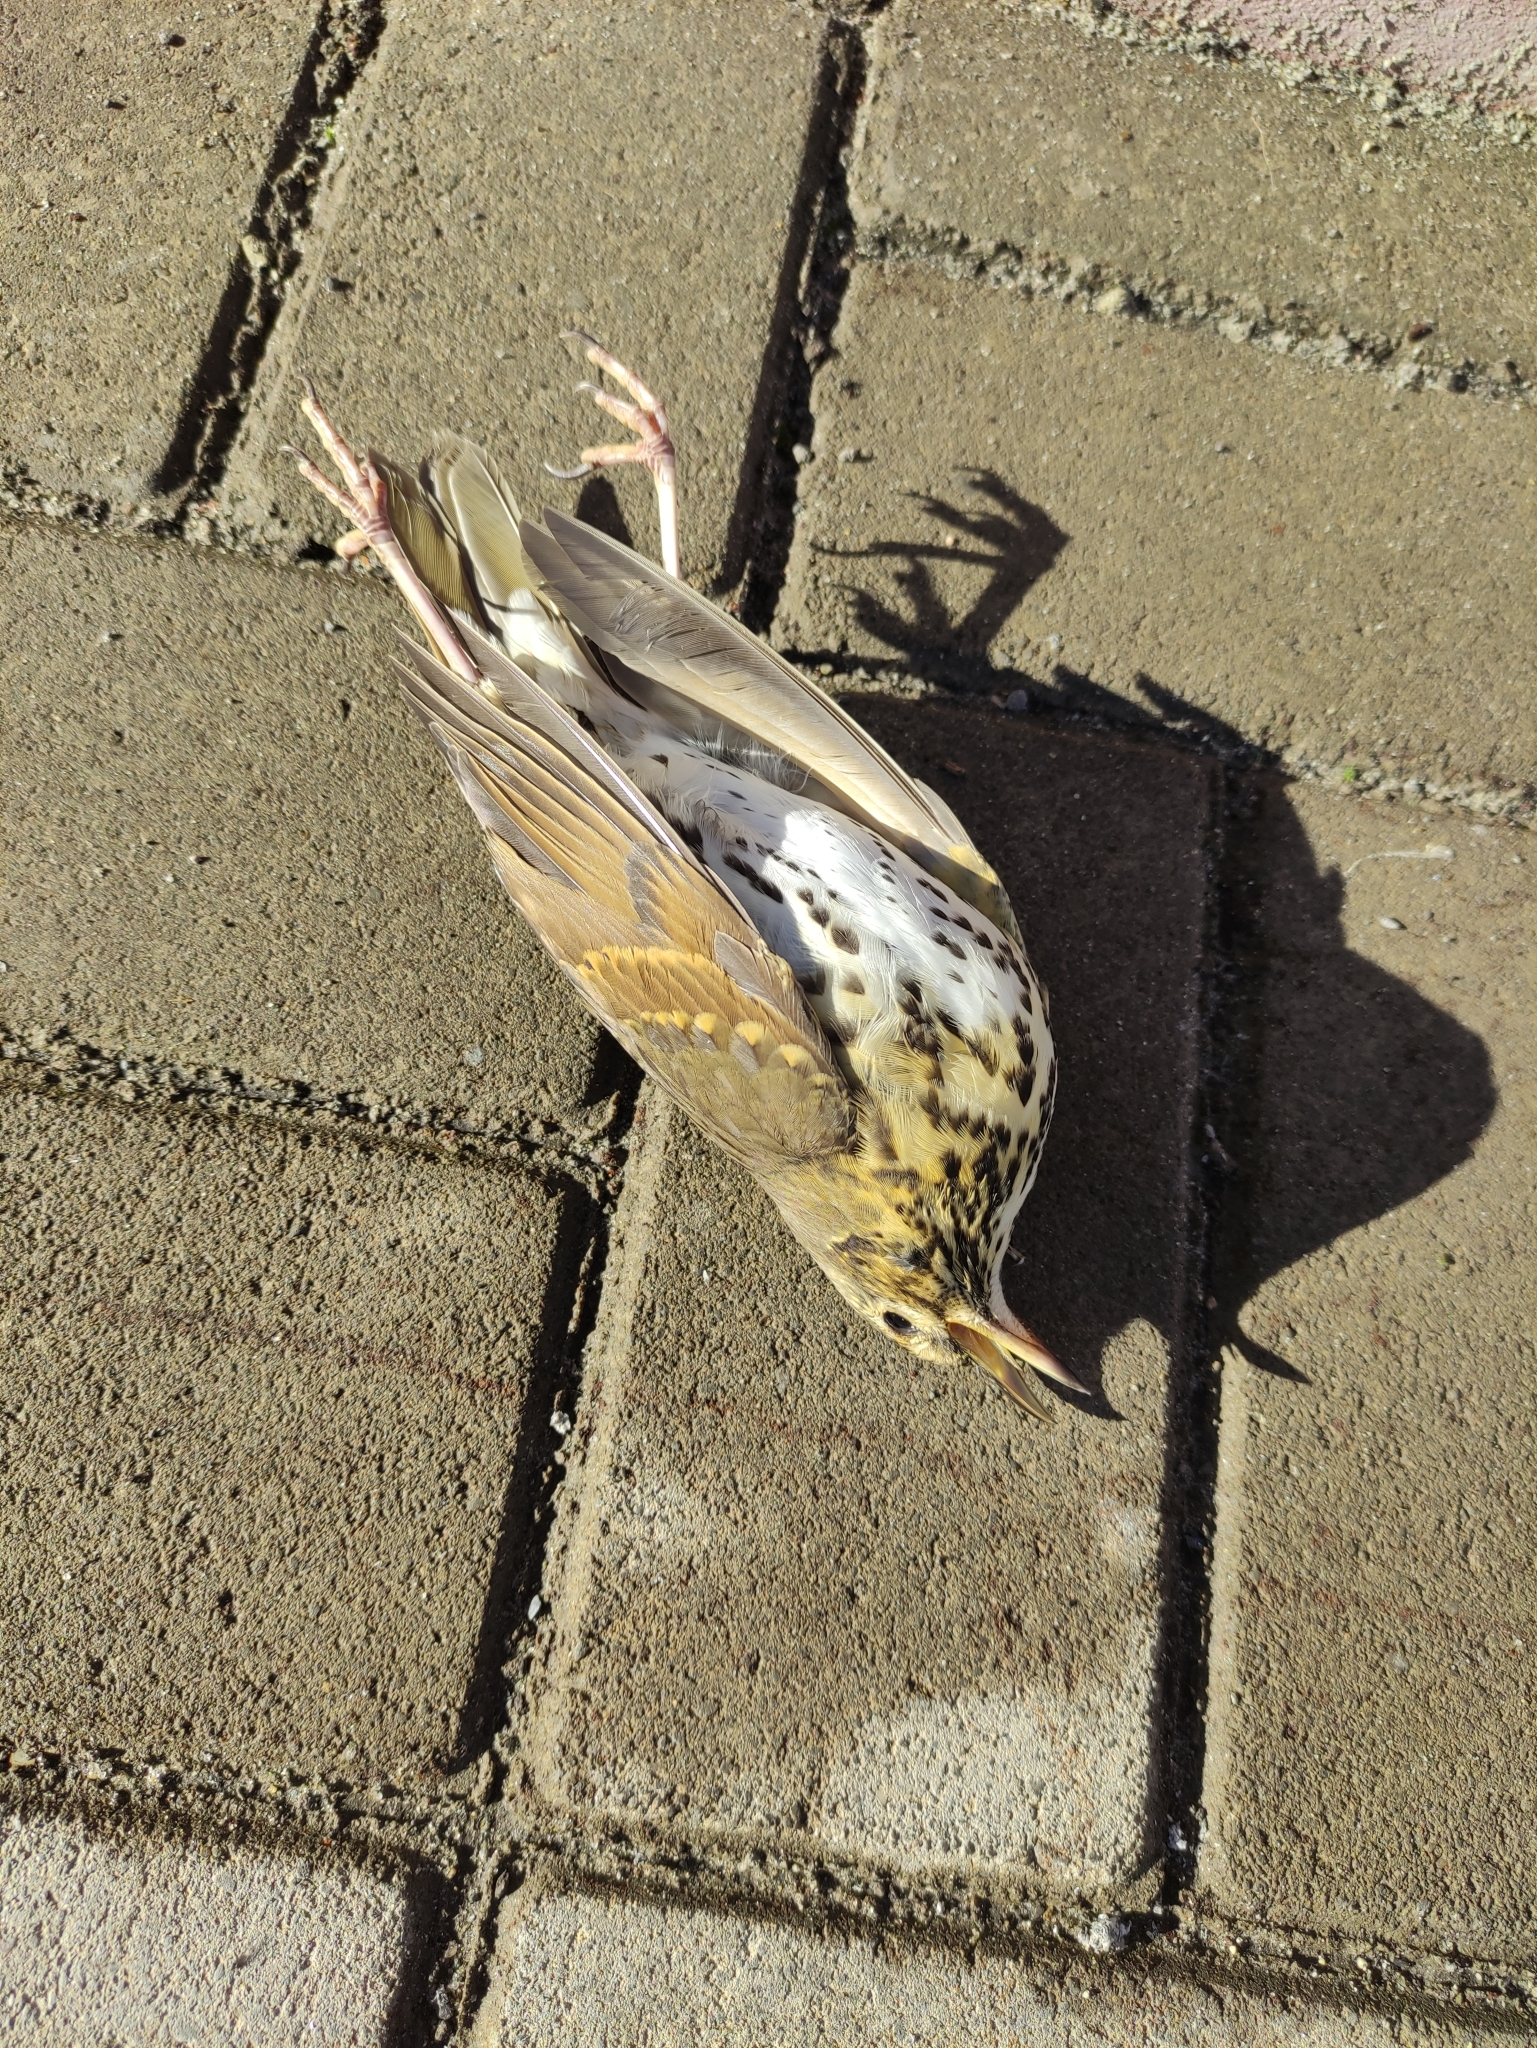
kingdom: Animalia
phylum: Chordata
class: Aves
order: Passeriformes
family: Turdidae
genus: Turdus
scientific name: Turdus philomelos
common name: Song thrush
